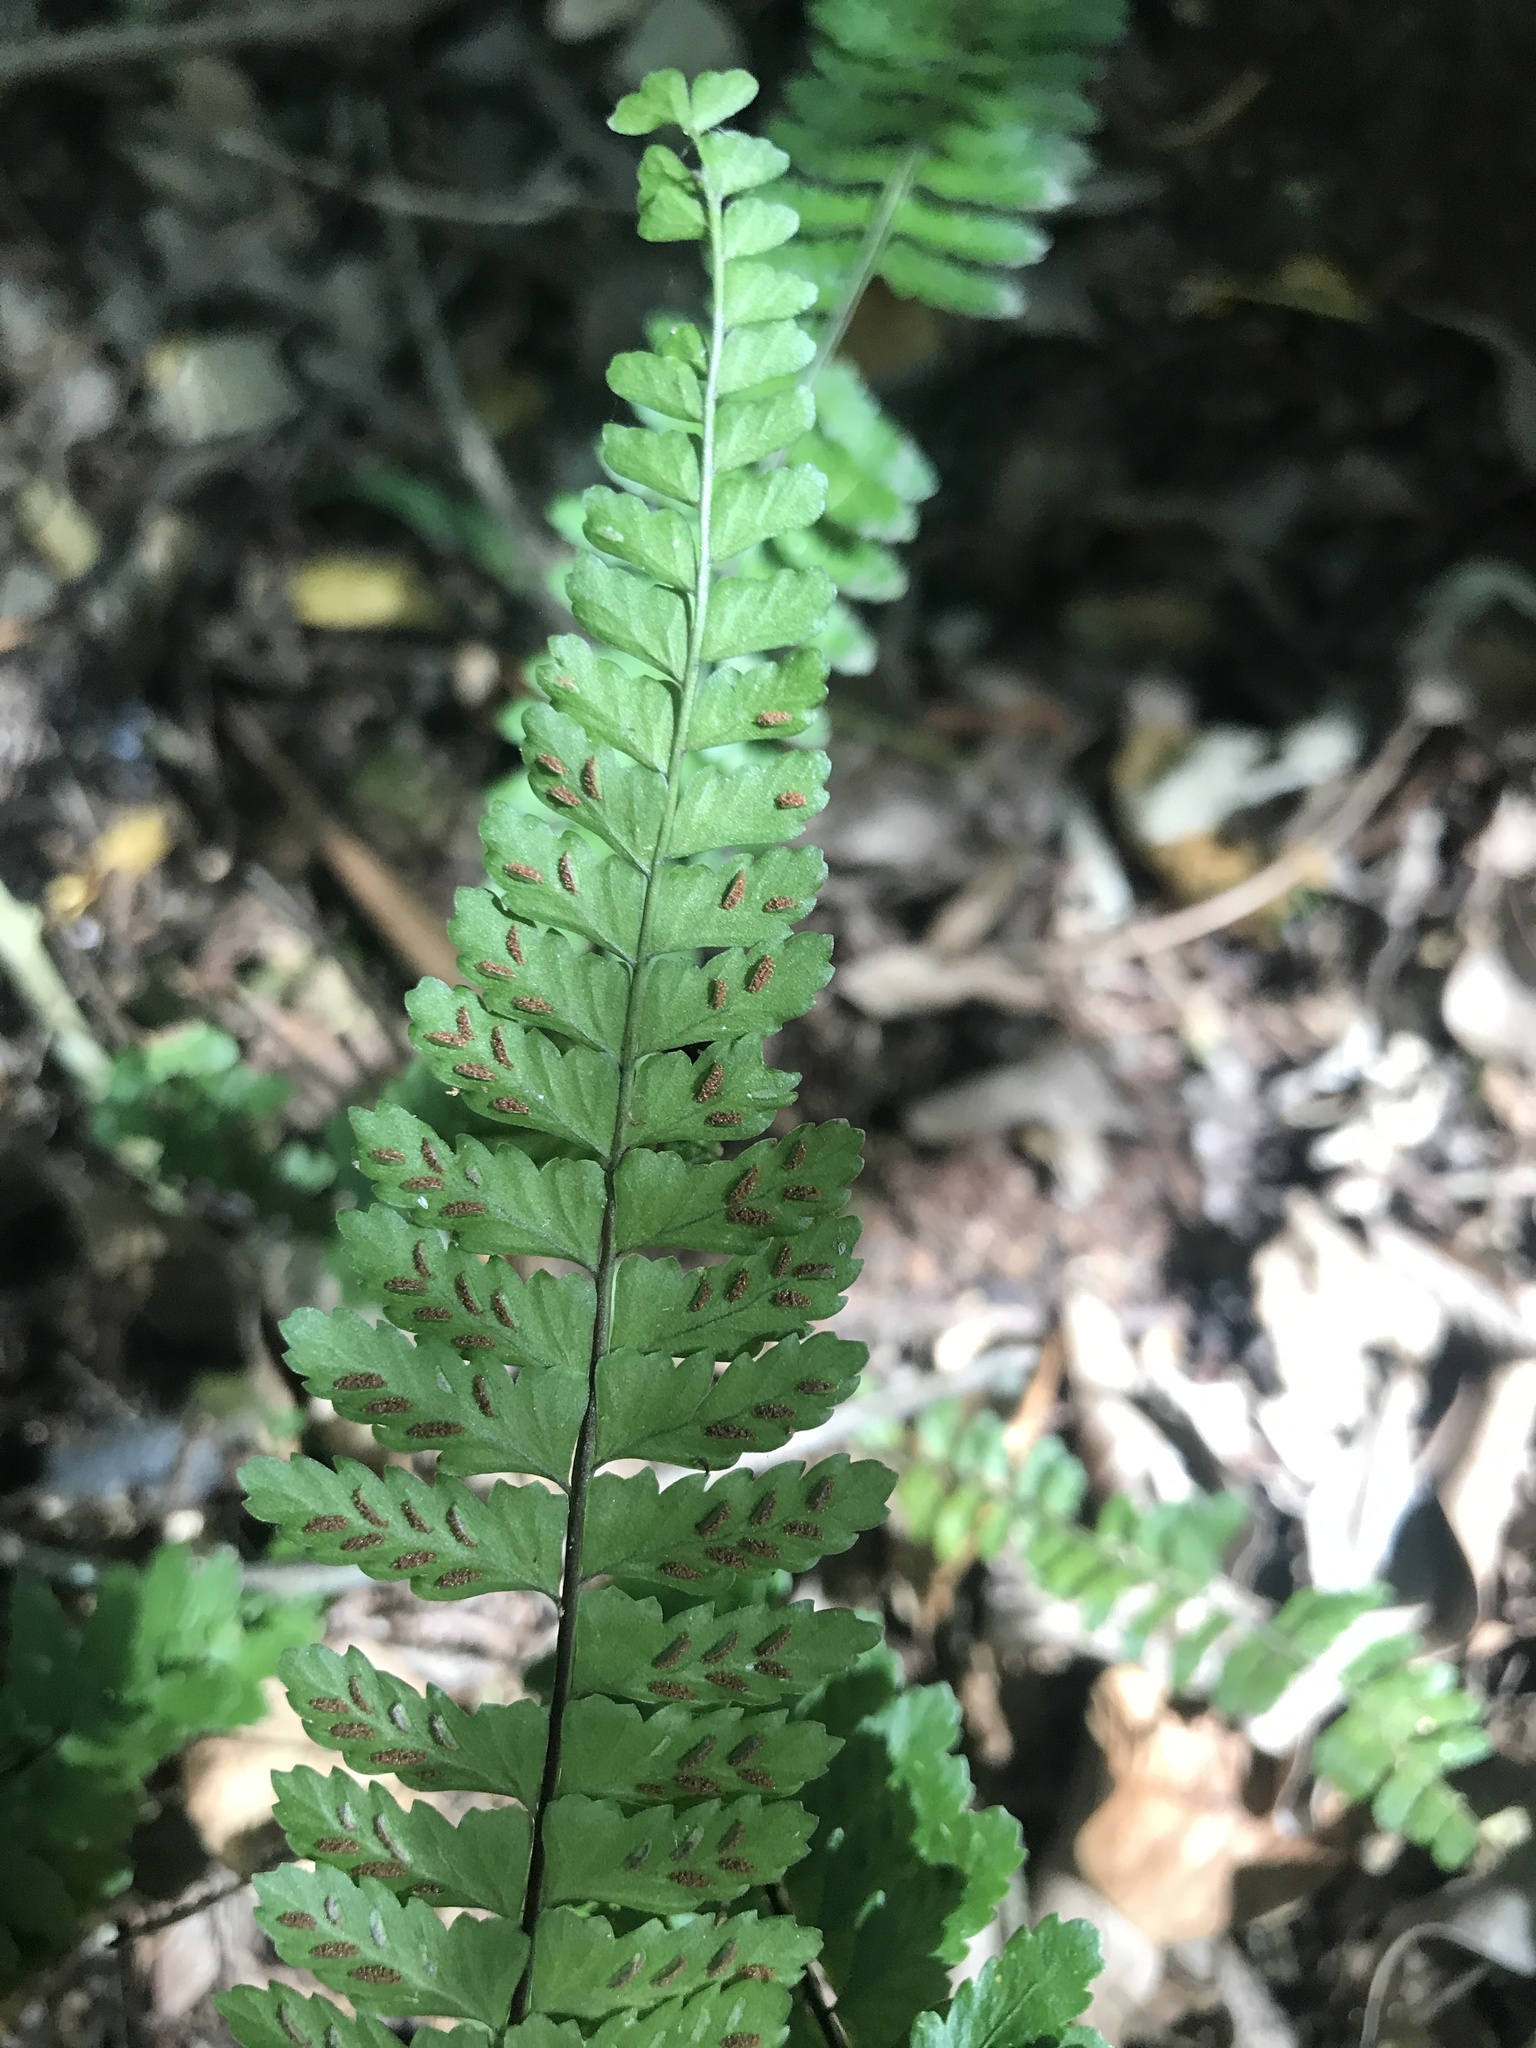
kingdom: Plantae
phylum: Tracheophyta
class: Polypodiopsida
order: Polypodiales
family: Aspleniaceae
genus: Asplenium
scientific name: Asplenium sellowianum
